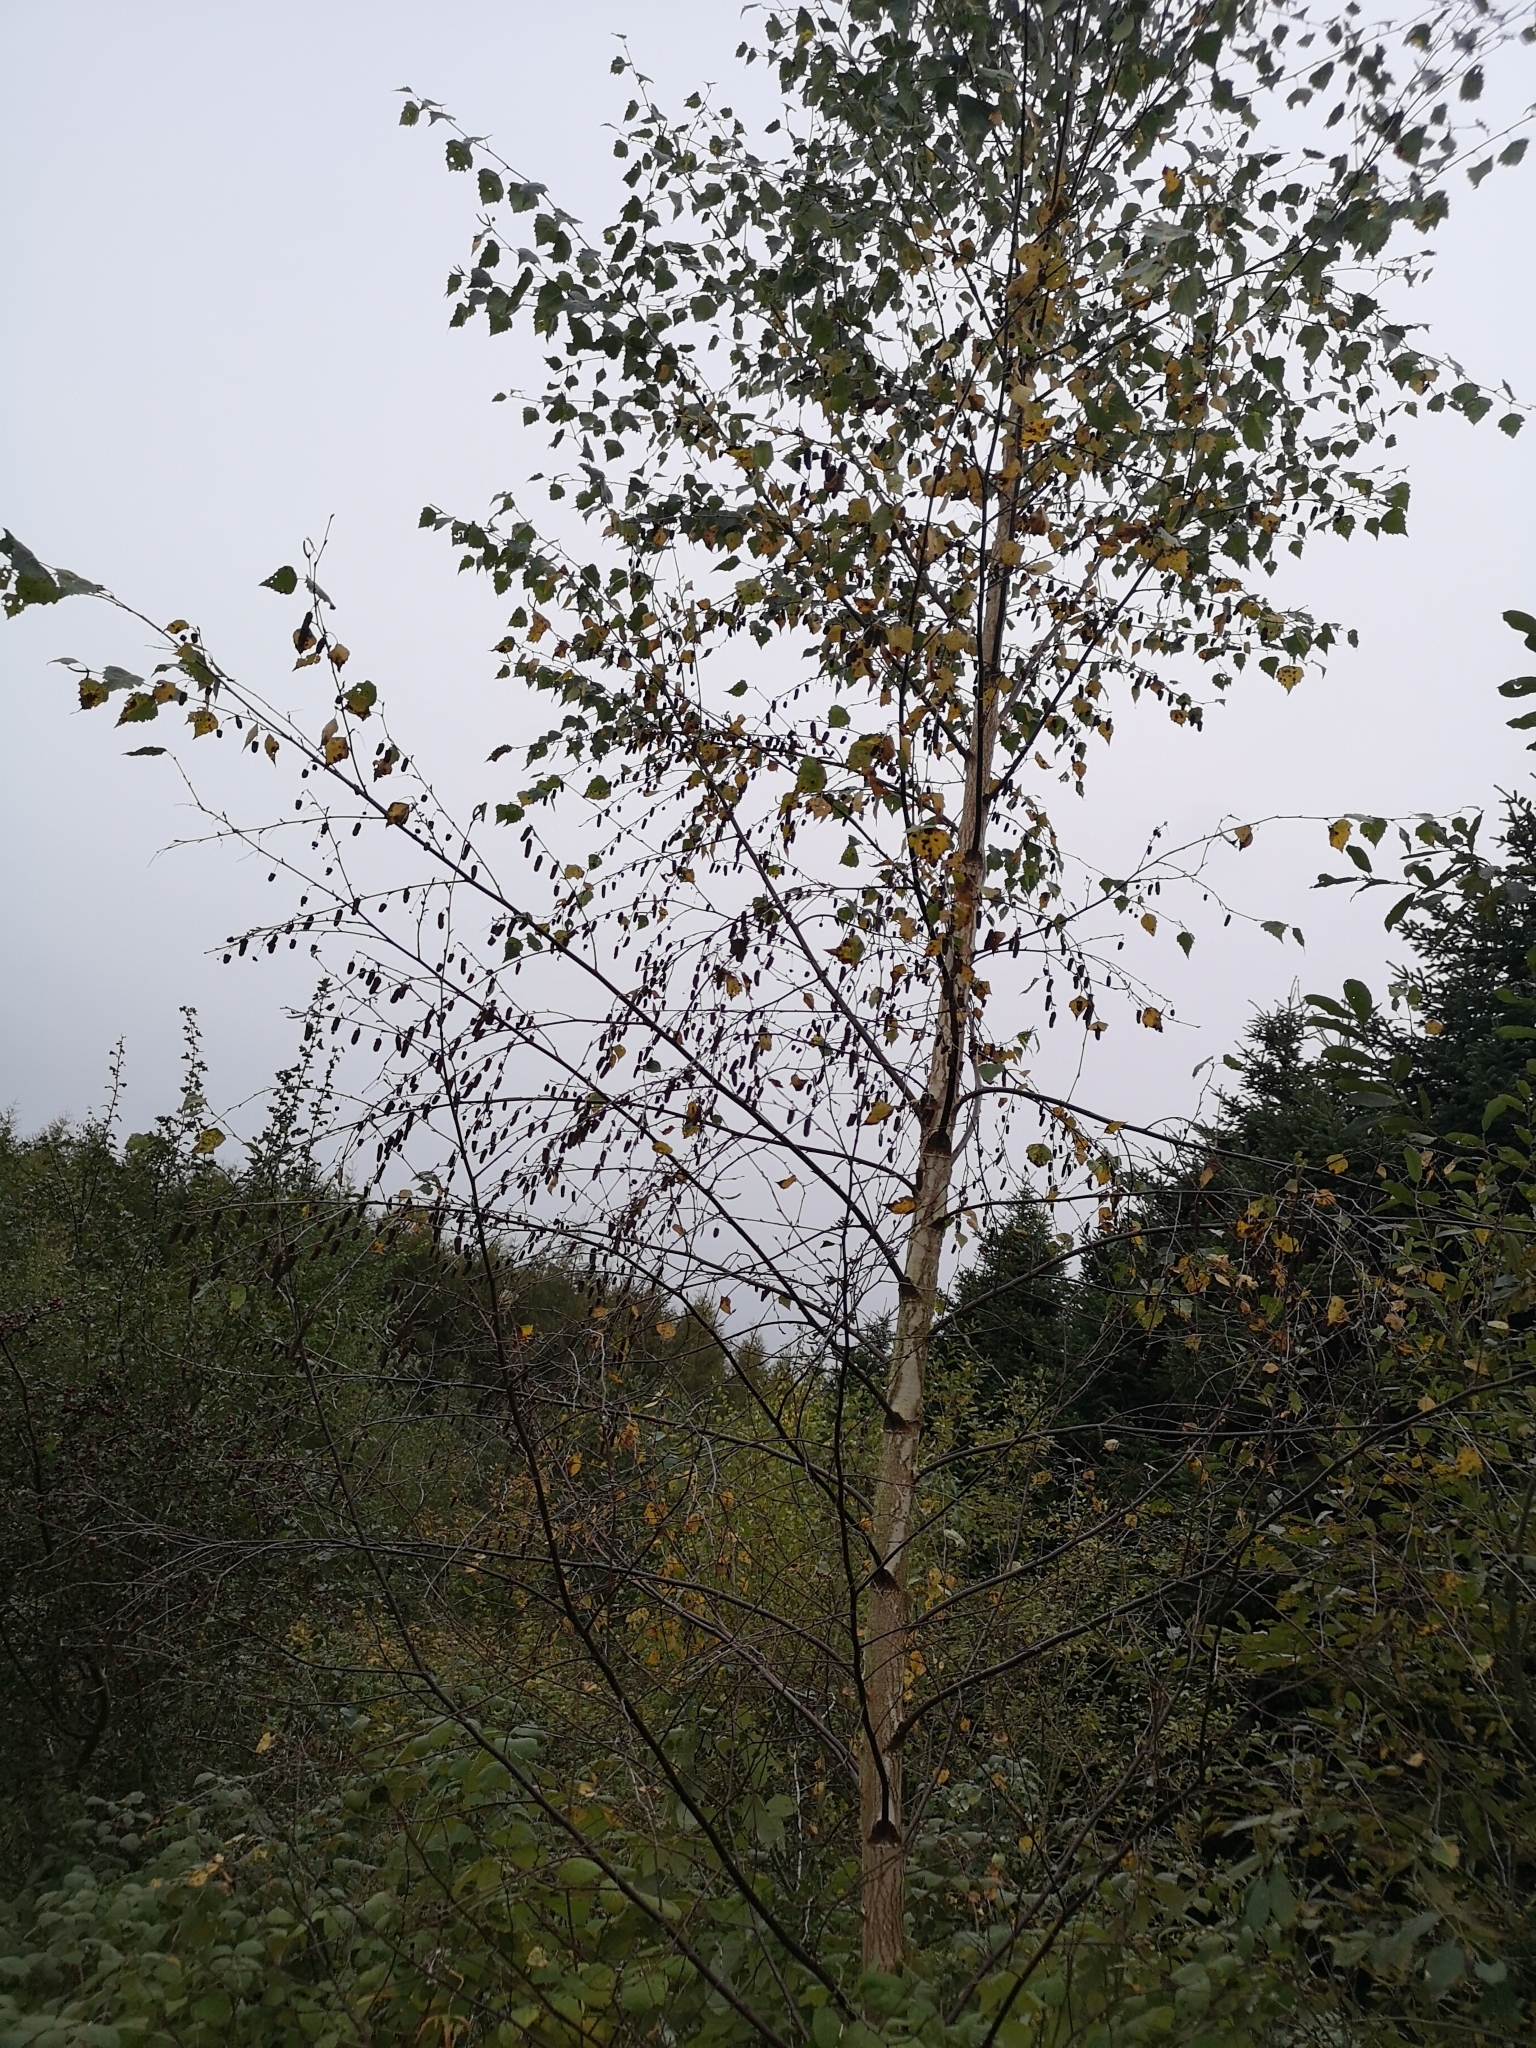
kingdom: Plantae
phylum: Tracheophyta
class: Magnoliopsida
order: Fagales
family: Betulaceae
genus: Betula
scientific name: Betula pendula
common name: Silver birch
